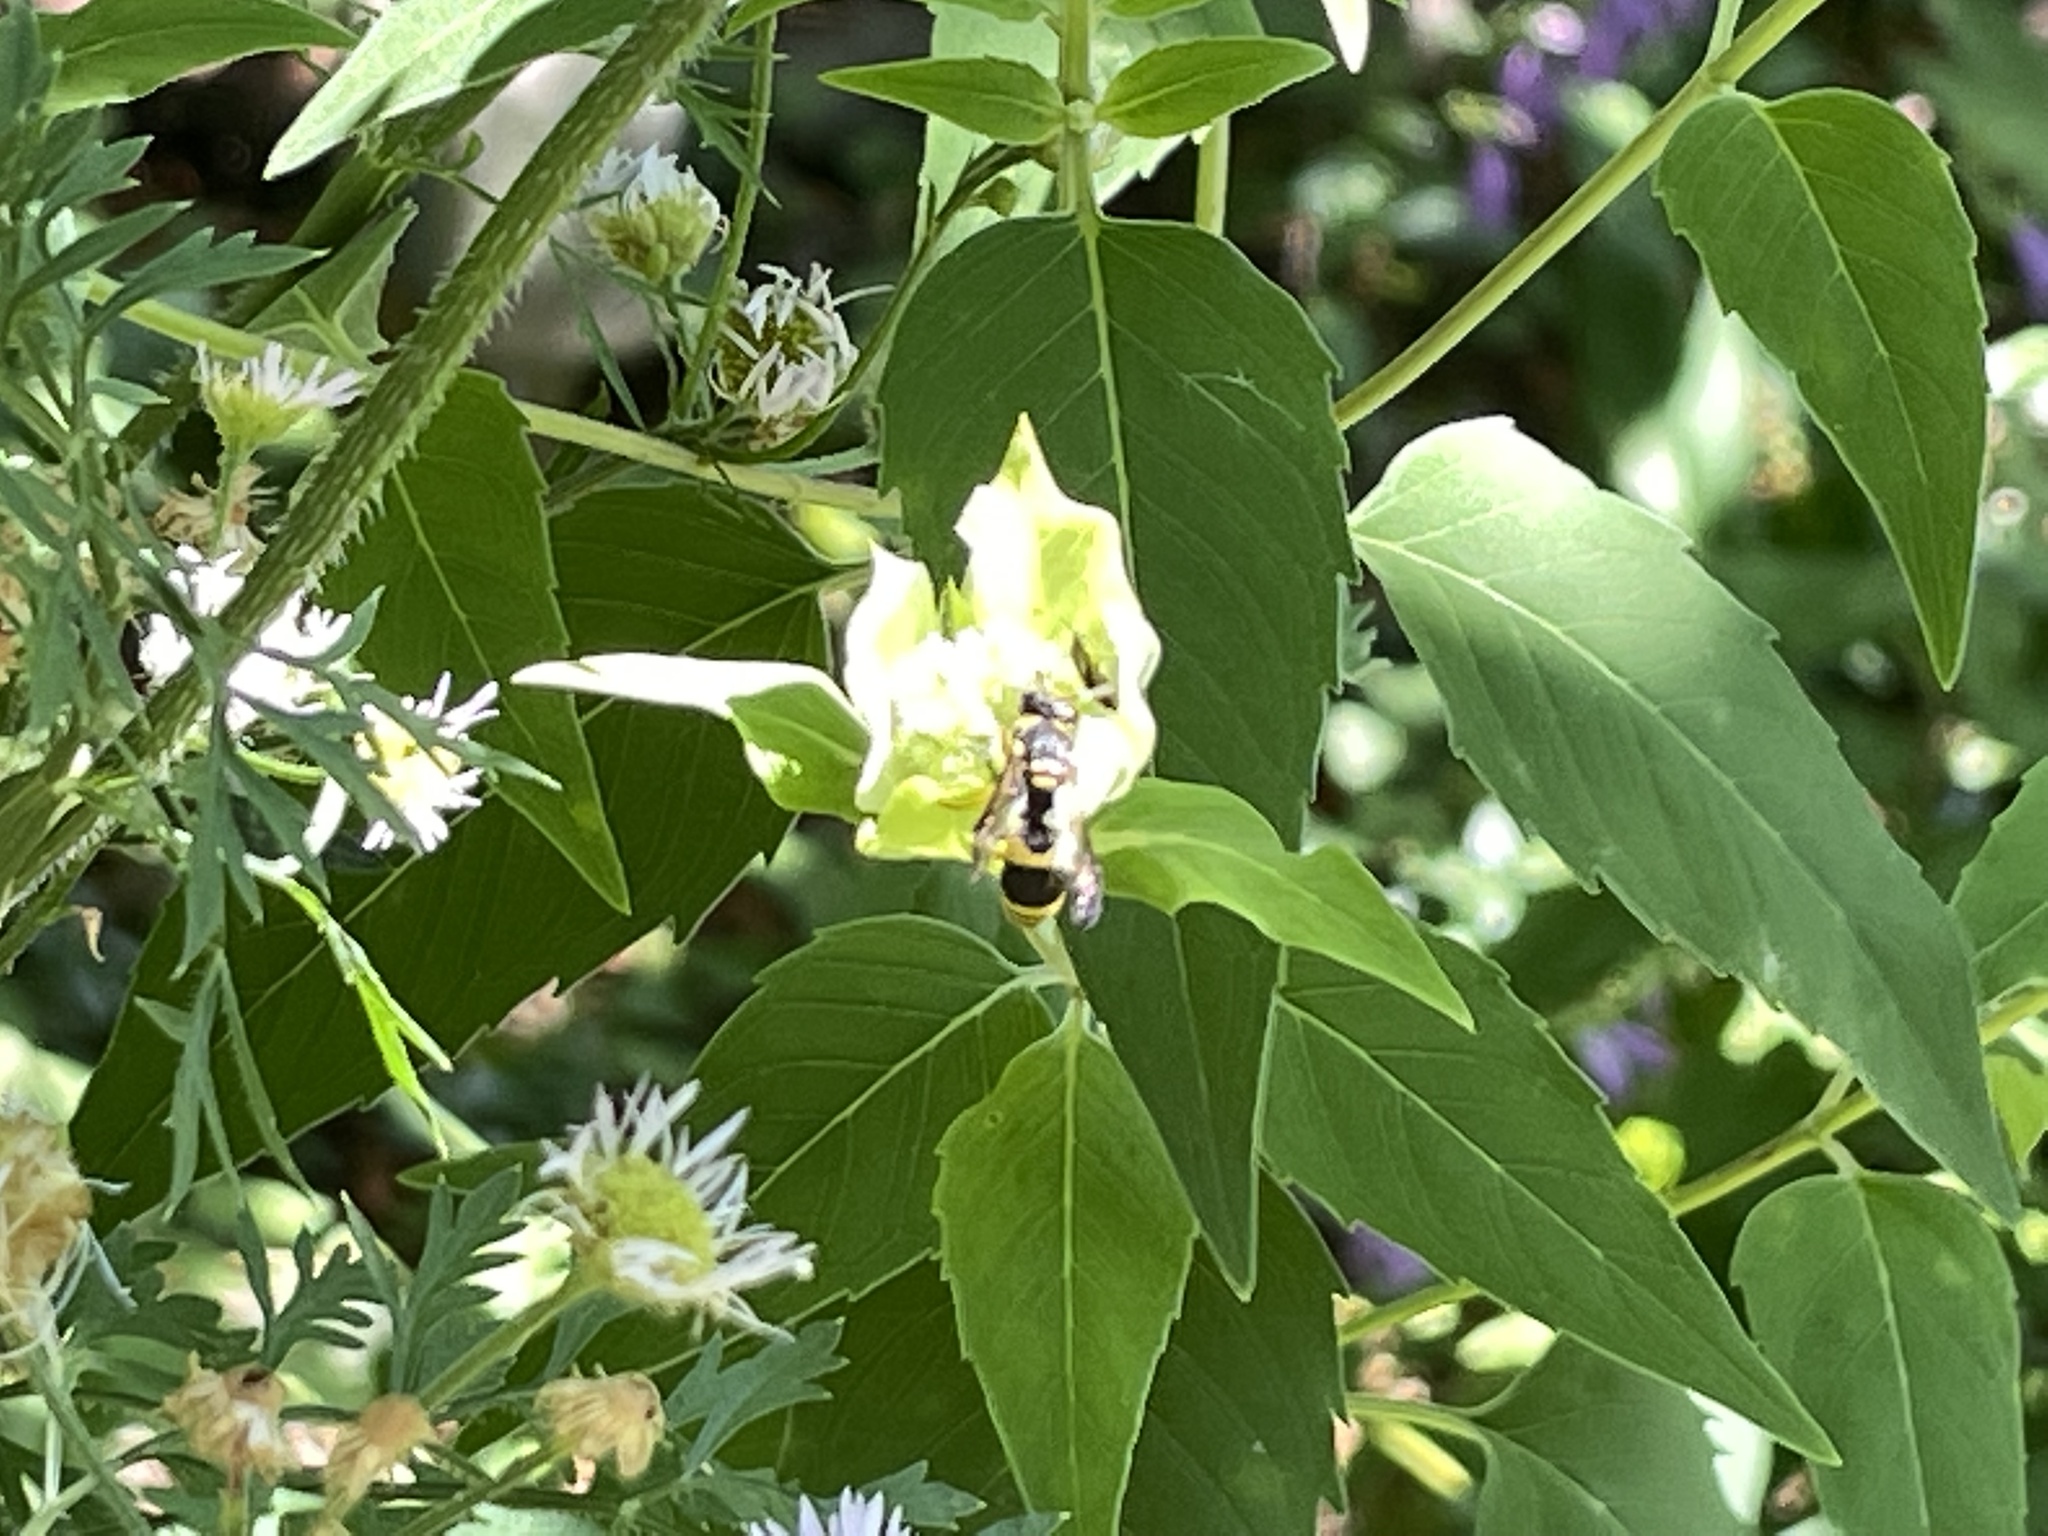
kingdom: Animalia
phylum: Arthropoda
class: Insecta
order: Hymenoptera
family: Vespidae
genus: Ancistrocerus
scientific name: Ancistrocerus gazella
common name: European tube wasp
